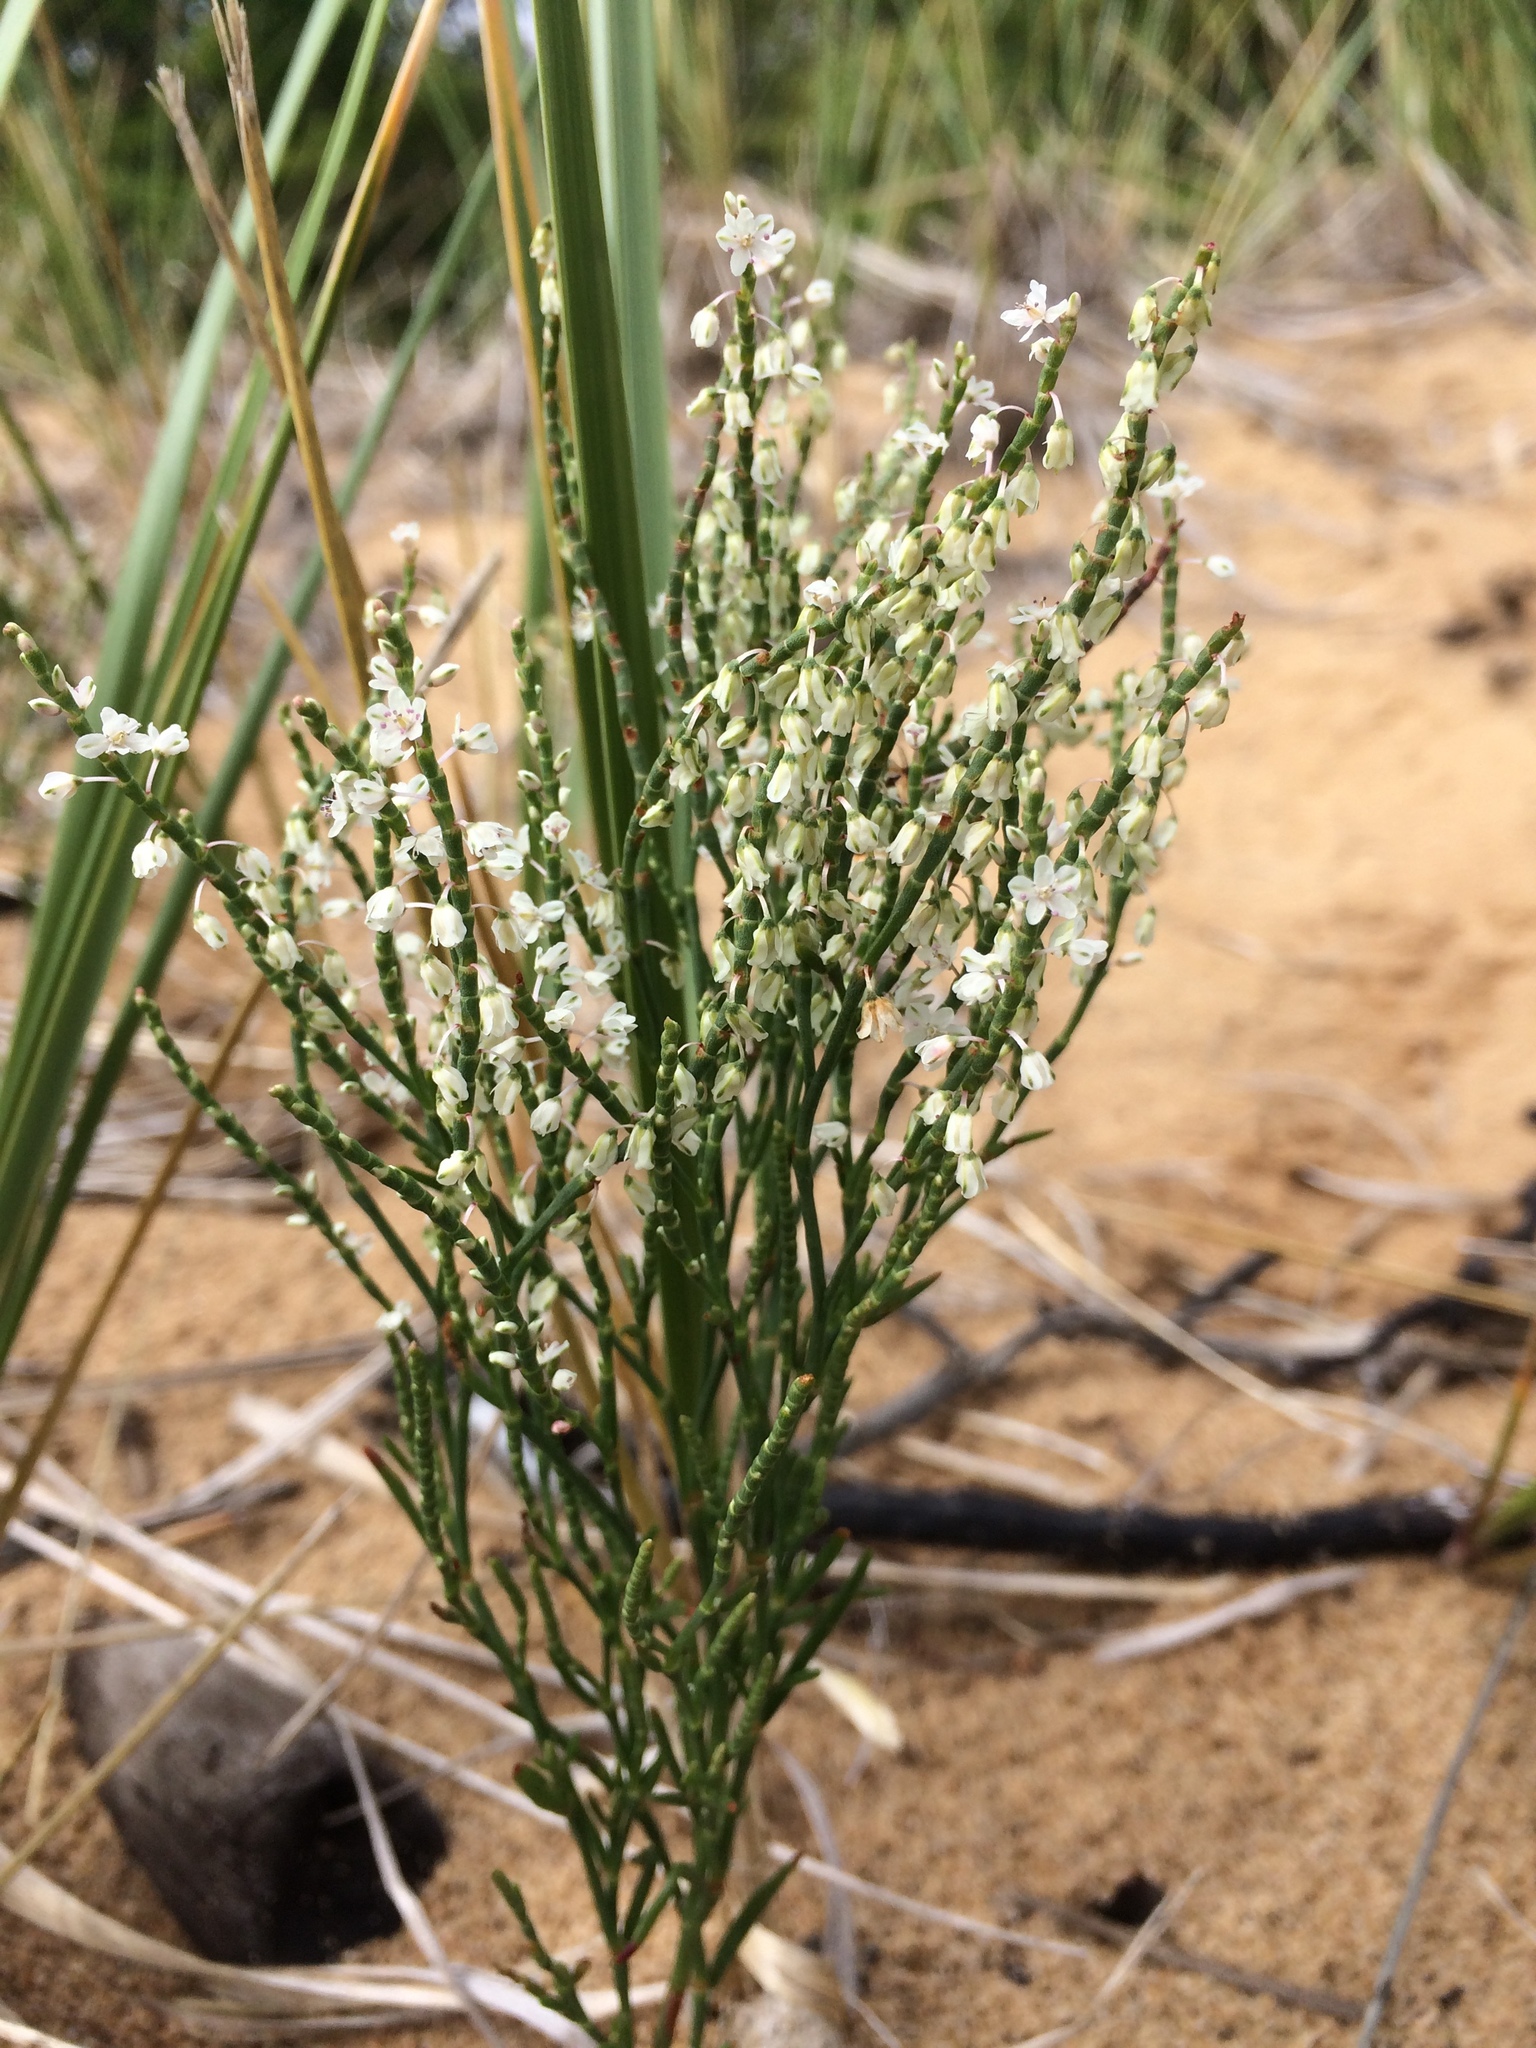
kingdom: Plantae
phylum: Tracheophyta
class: Magnoliopsida
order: Caryophyllales
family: Polygonaceae
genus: Polygonella
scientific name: Polygonella articulata
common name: Coastal jointweed
